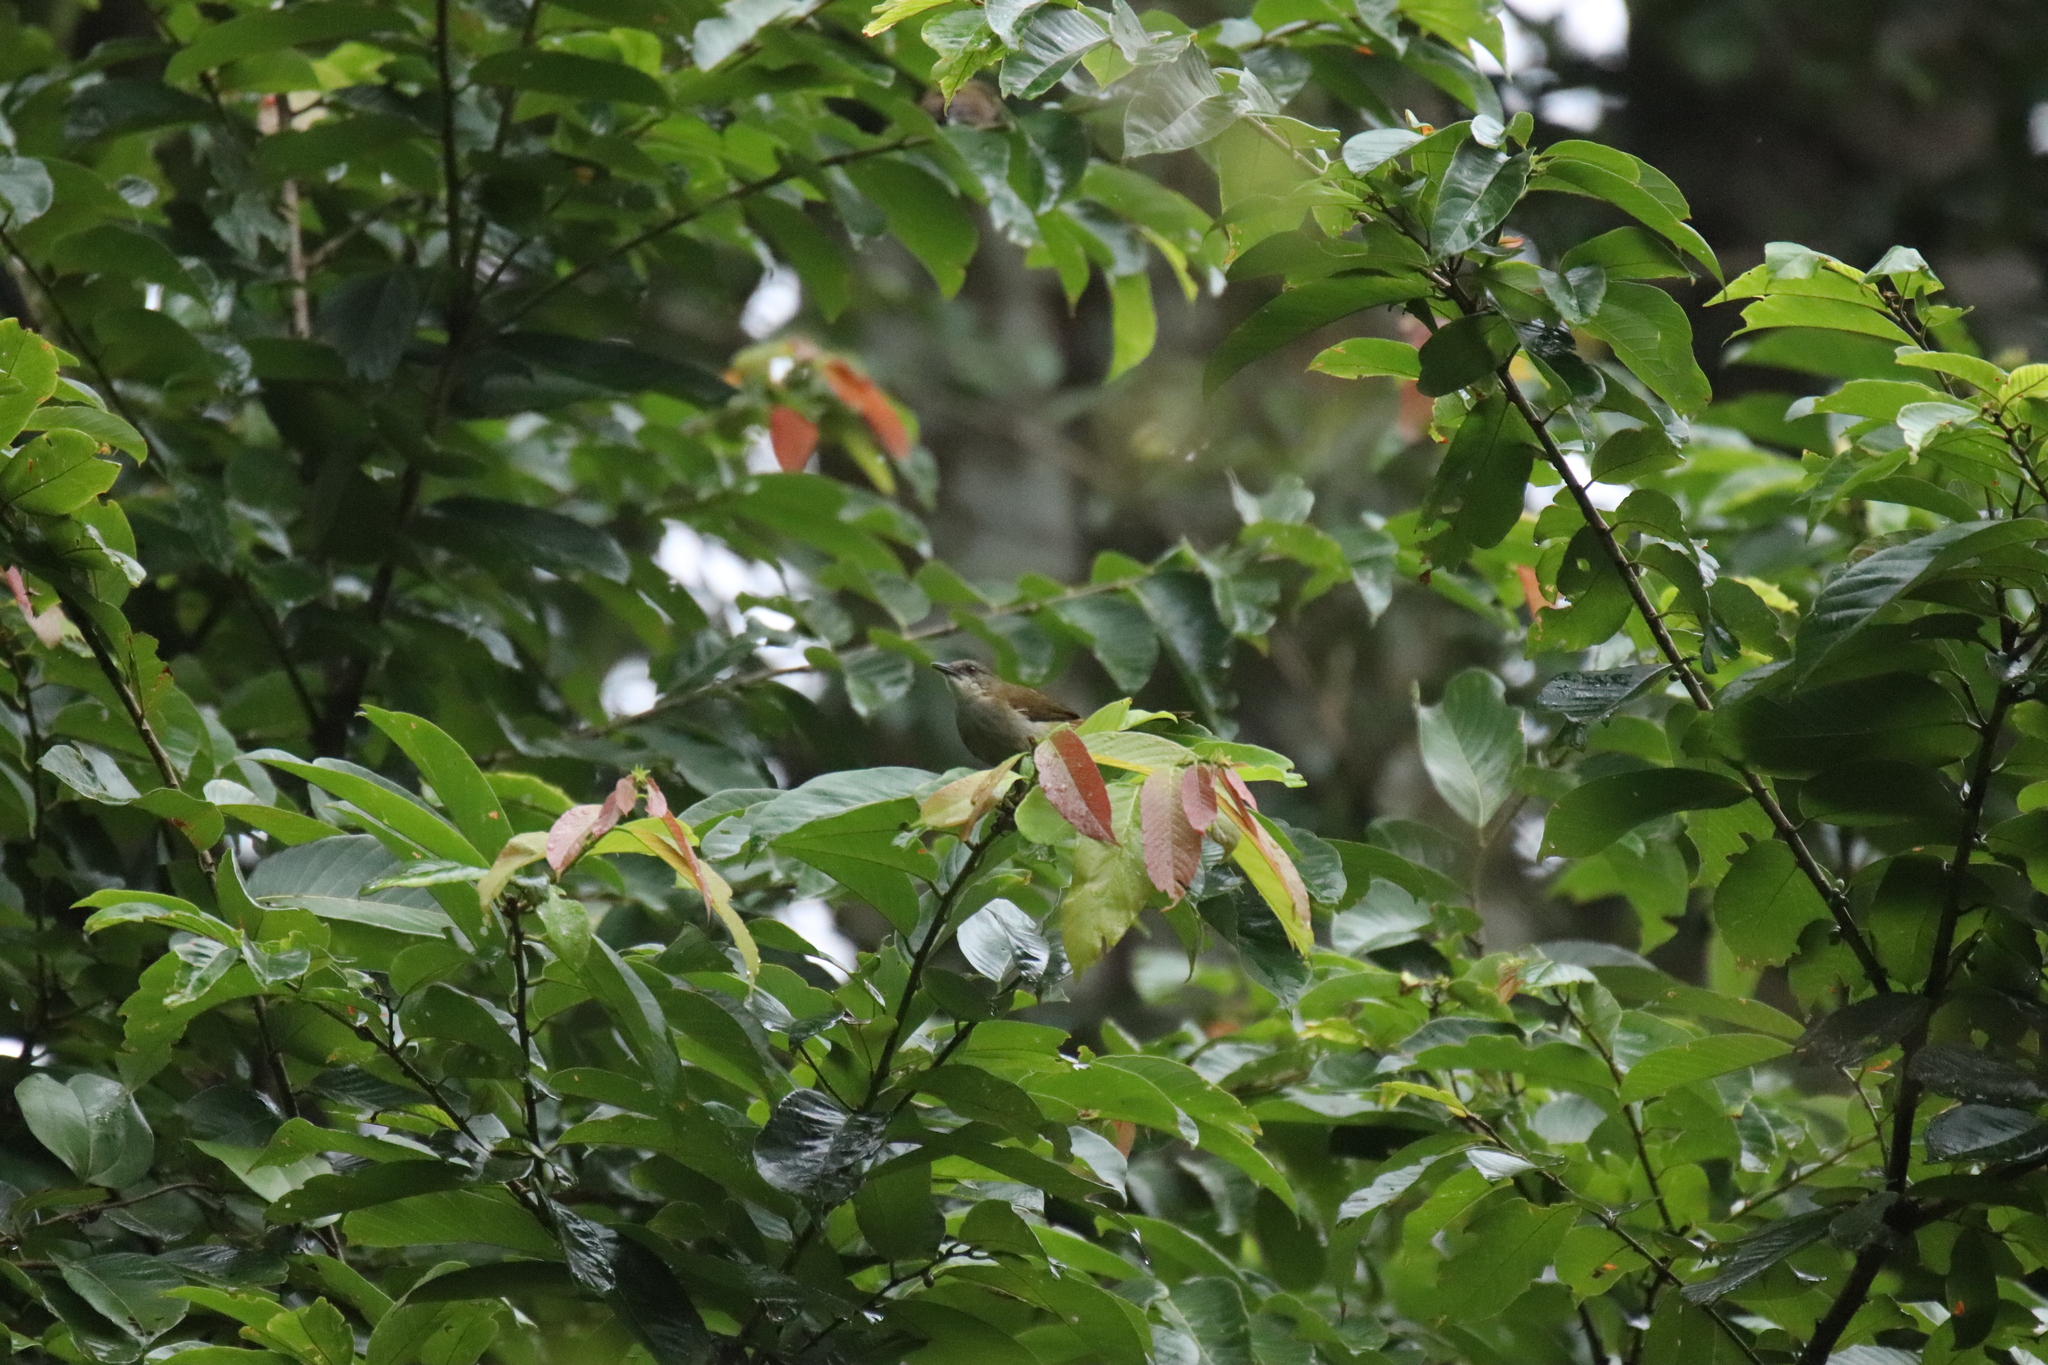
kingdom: Animalia
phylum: Chordata
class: Aves
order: Passeriformes
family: Pycnonotidae
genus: Stelgidillas
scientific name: Stelgidillas gracilirostris
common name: Slender-billed greenbul
